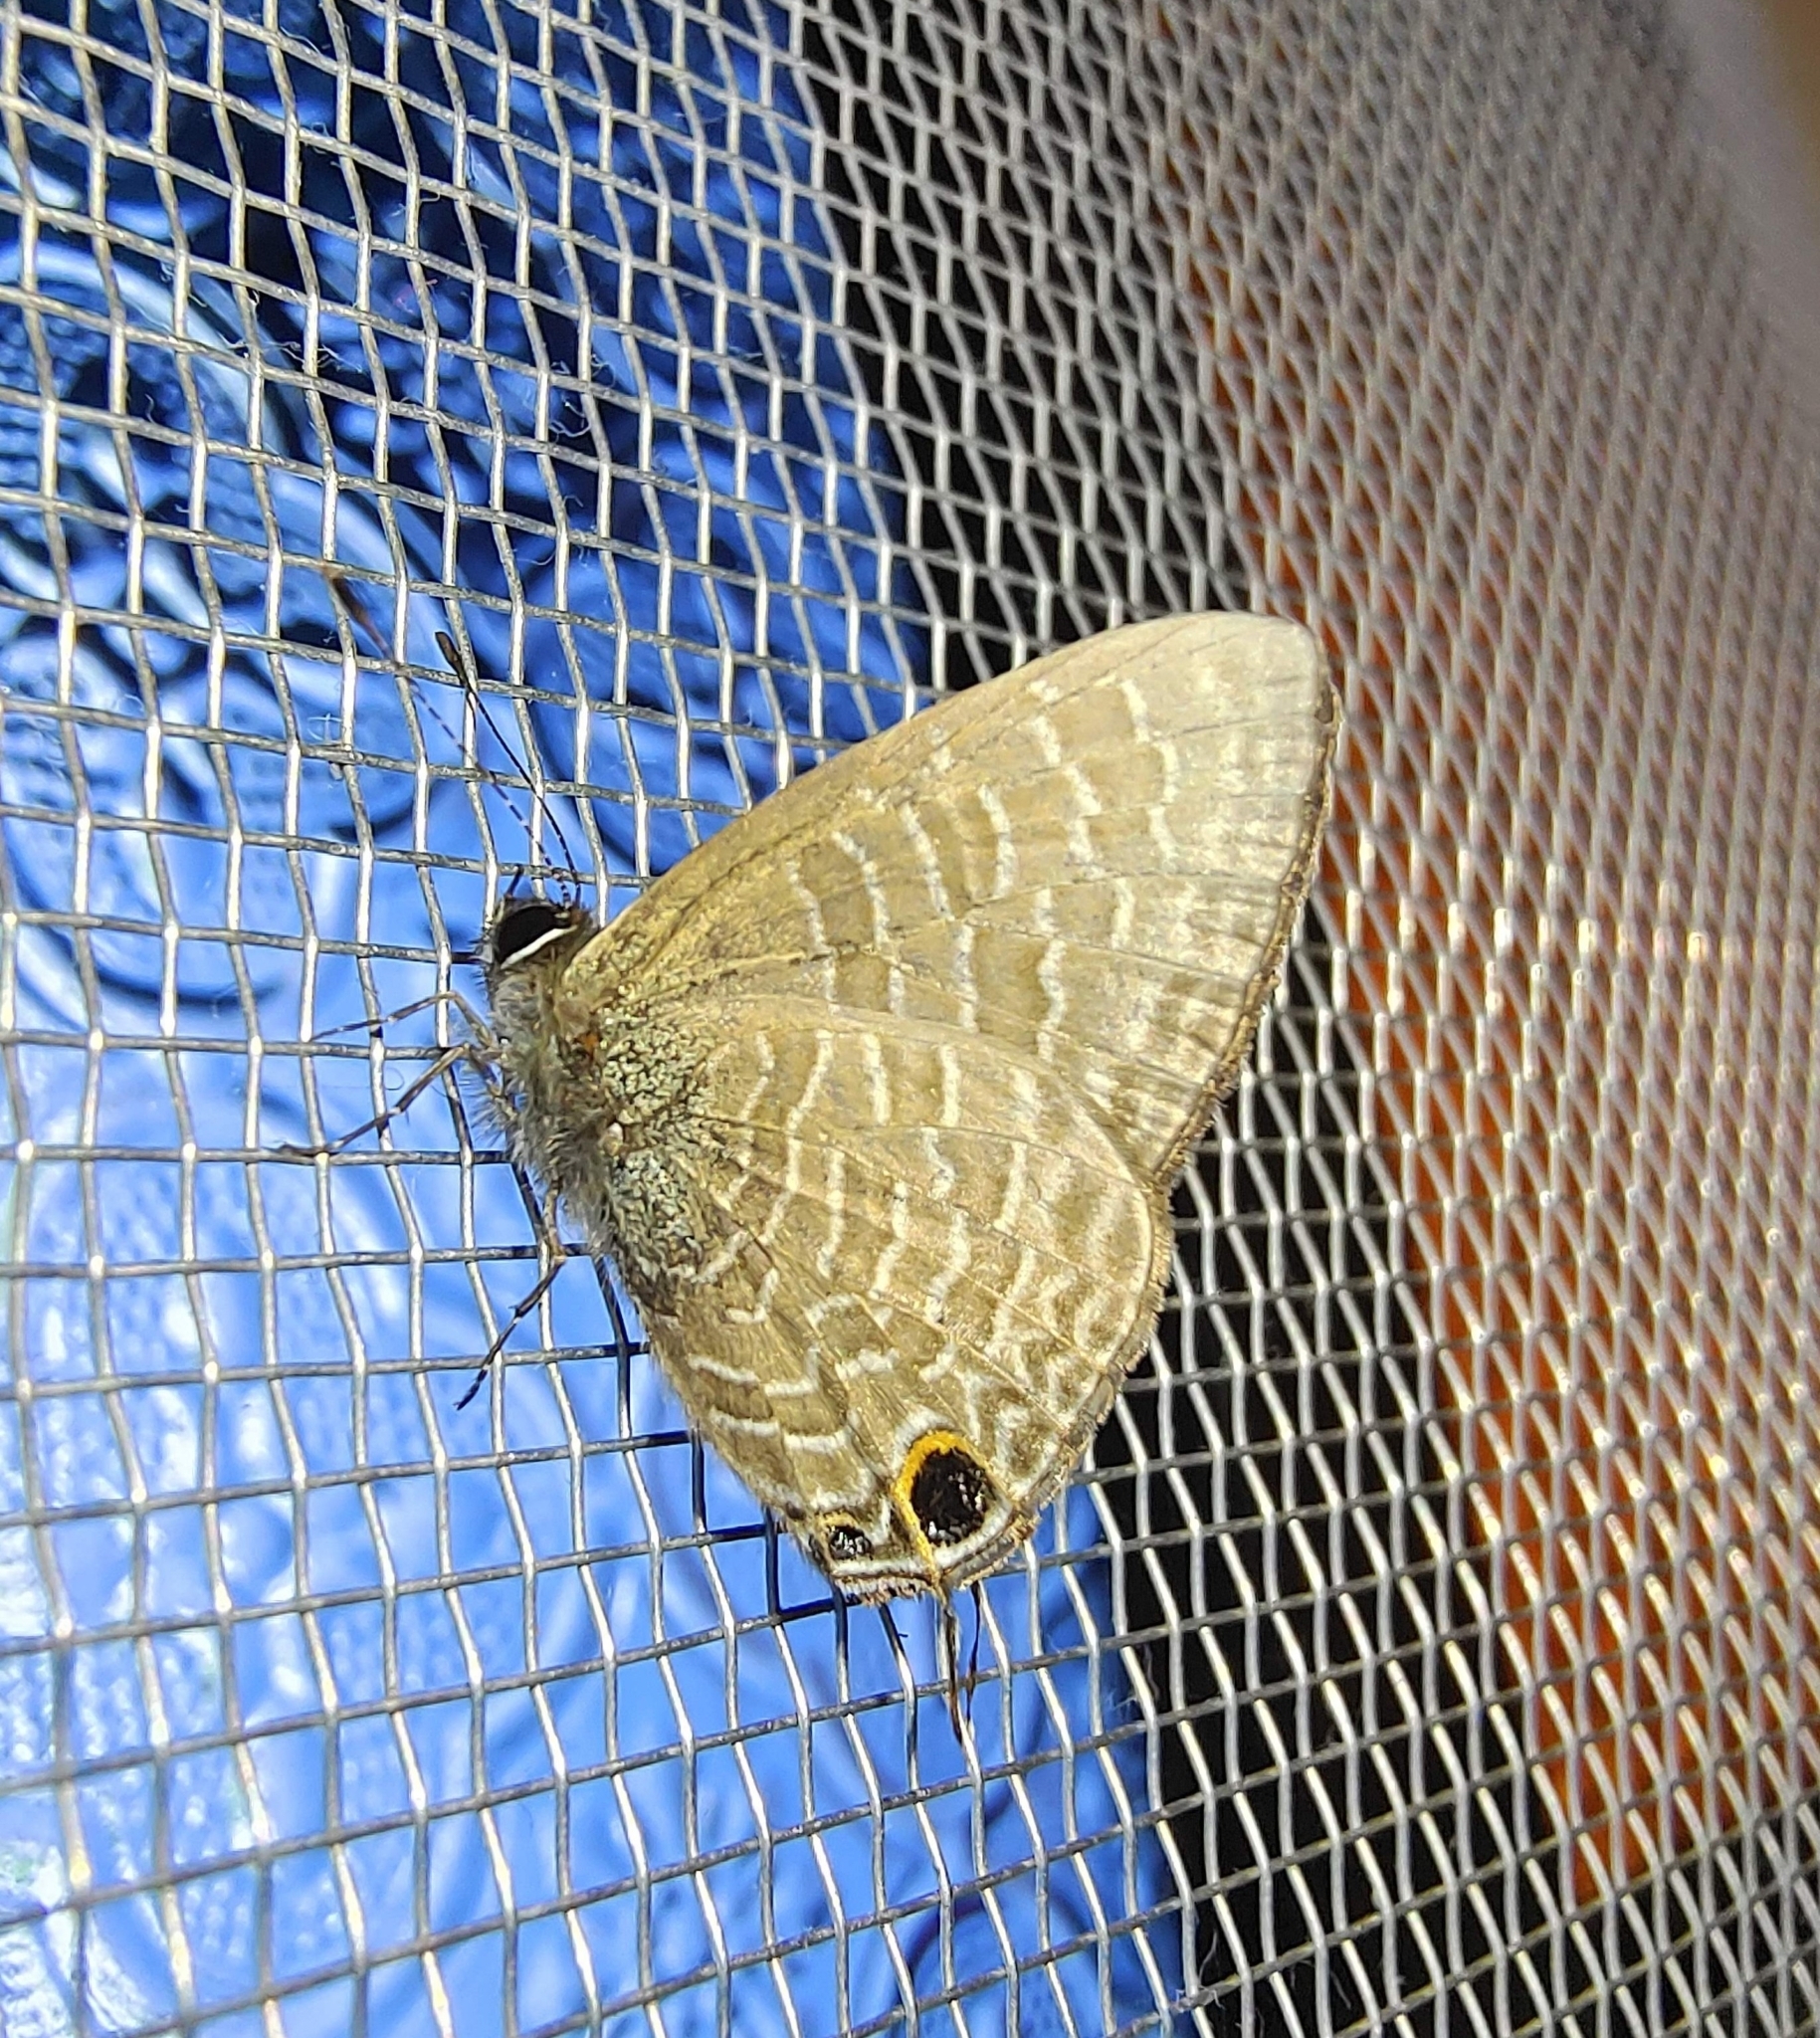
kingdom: Animalia
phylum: Arthropoda
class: Insecta
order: Lepidoptera
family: Lycaenidae
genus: Ionolyce
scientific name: Ionolyce helicon
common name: Pointed line blue
